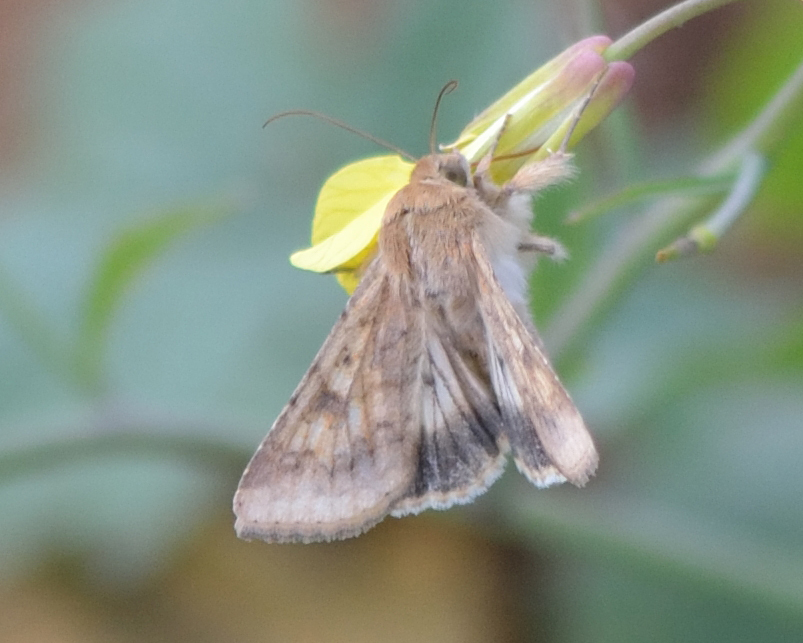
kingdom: Animalia
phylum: Arthropoda
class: Insecta
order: Lepidoptera
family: Noctuidae
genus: Helicoverpa
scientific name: Helicoverpa armigera
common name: Cotton bollworm
